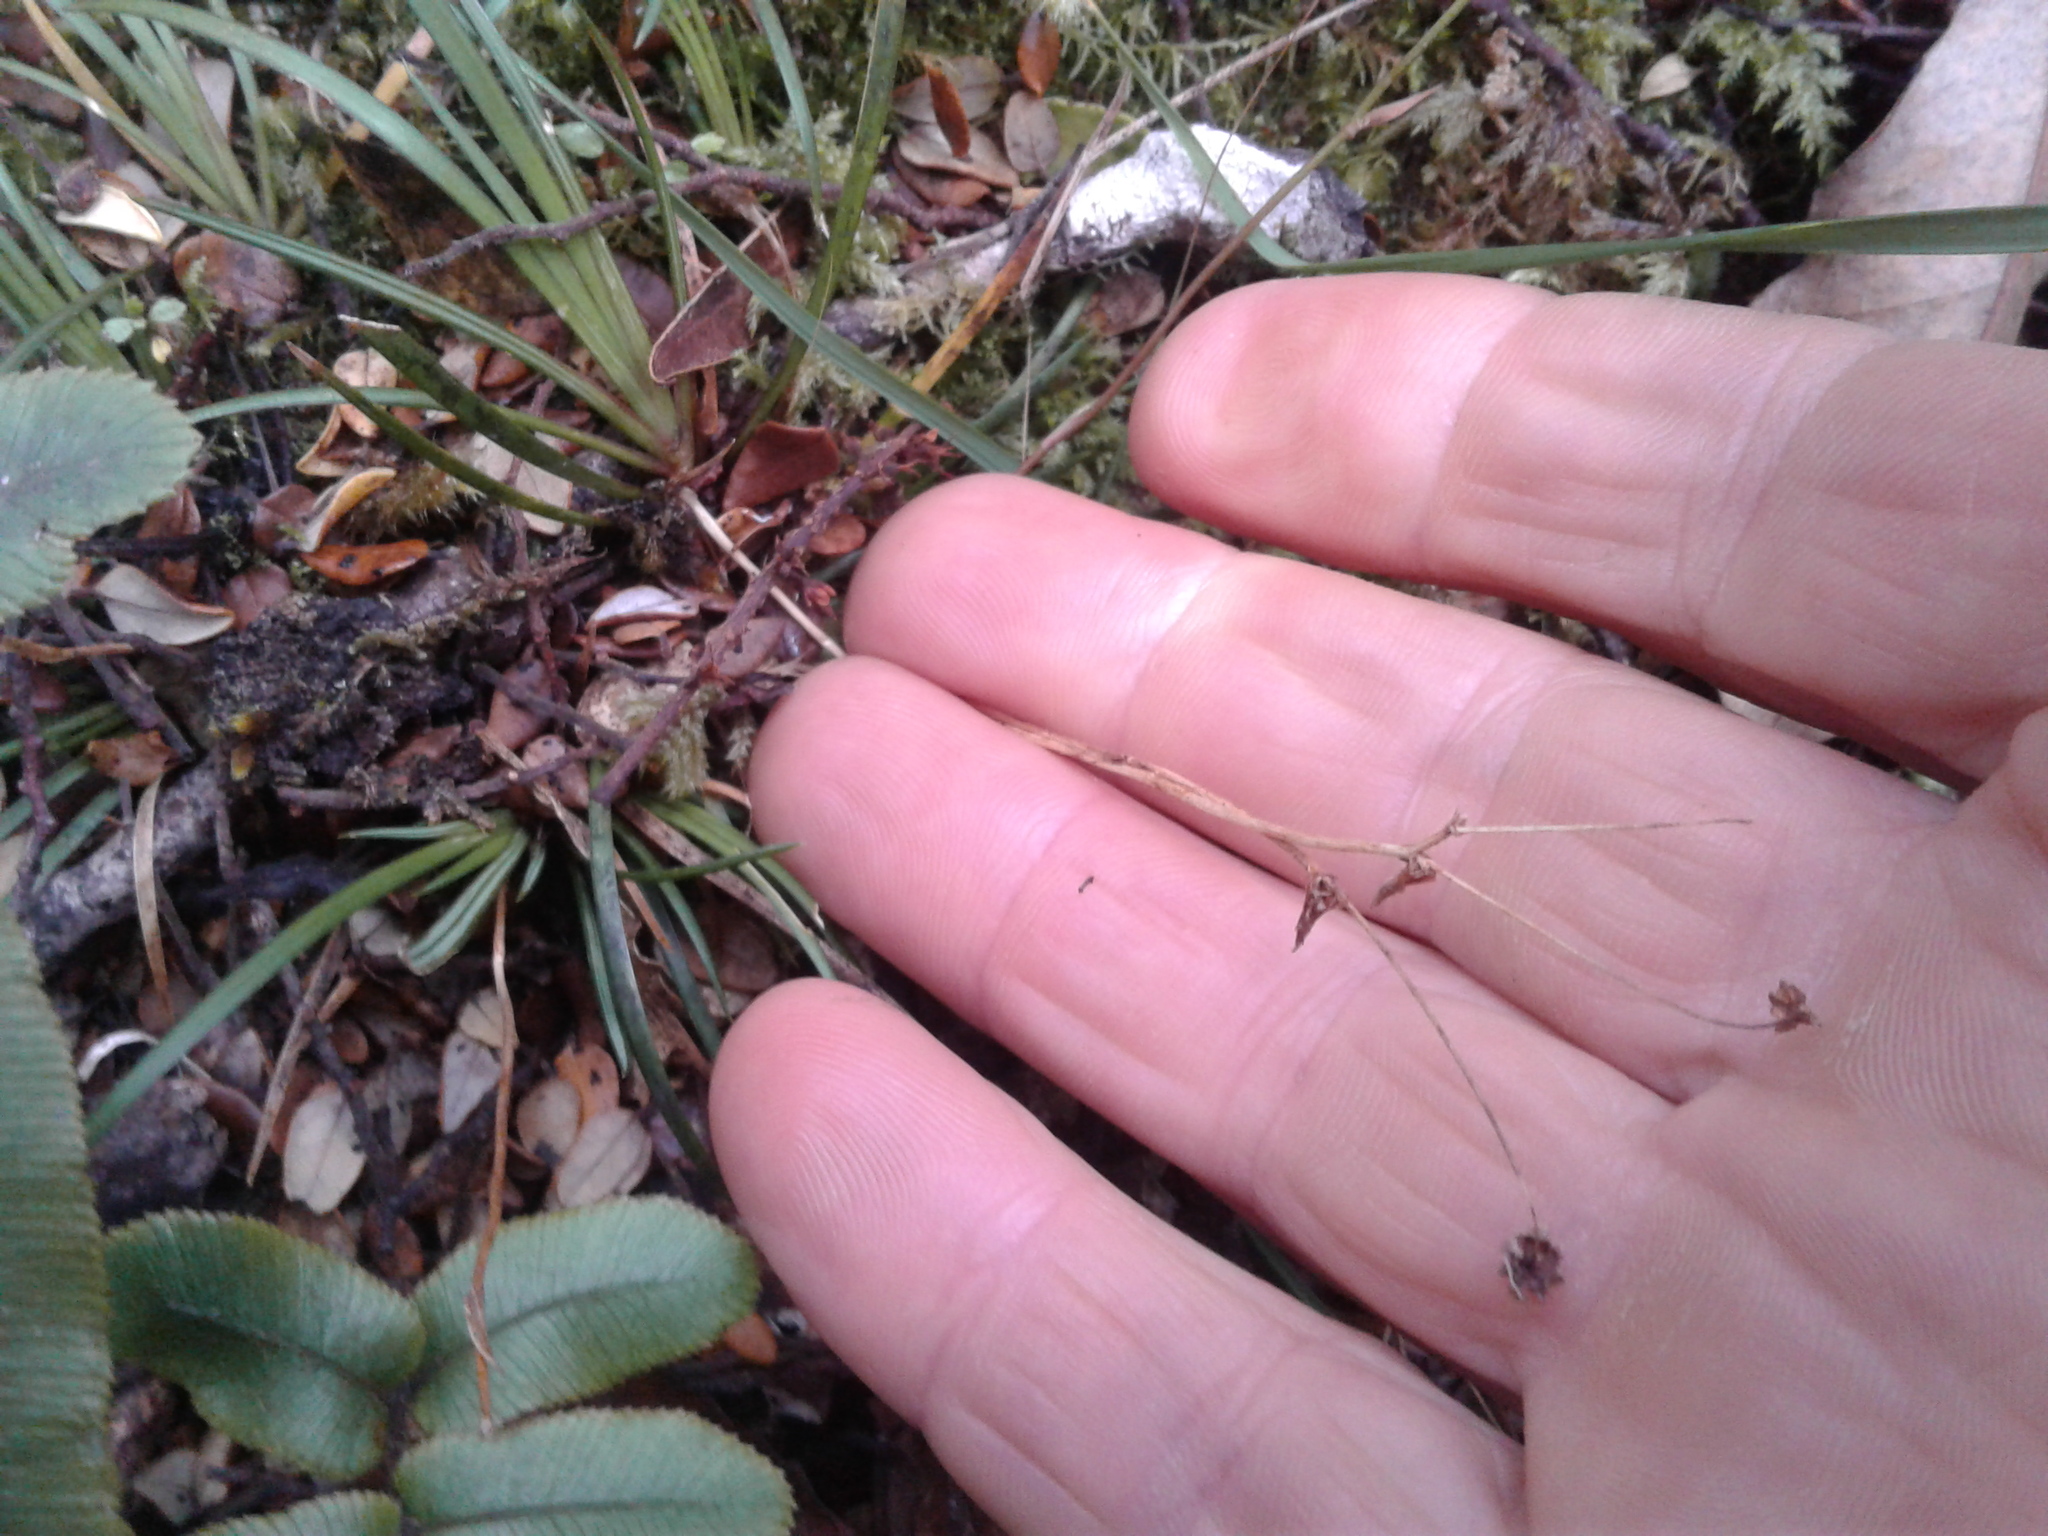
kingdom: Plantae
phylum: Tracheophyta
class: Liliopsida
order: Asparagales
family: Iridaceae
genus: Libertia
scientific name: Libertia micrantha
